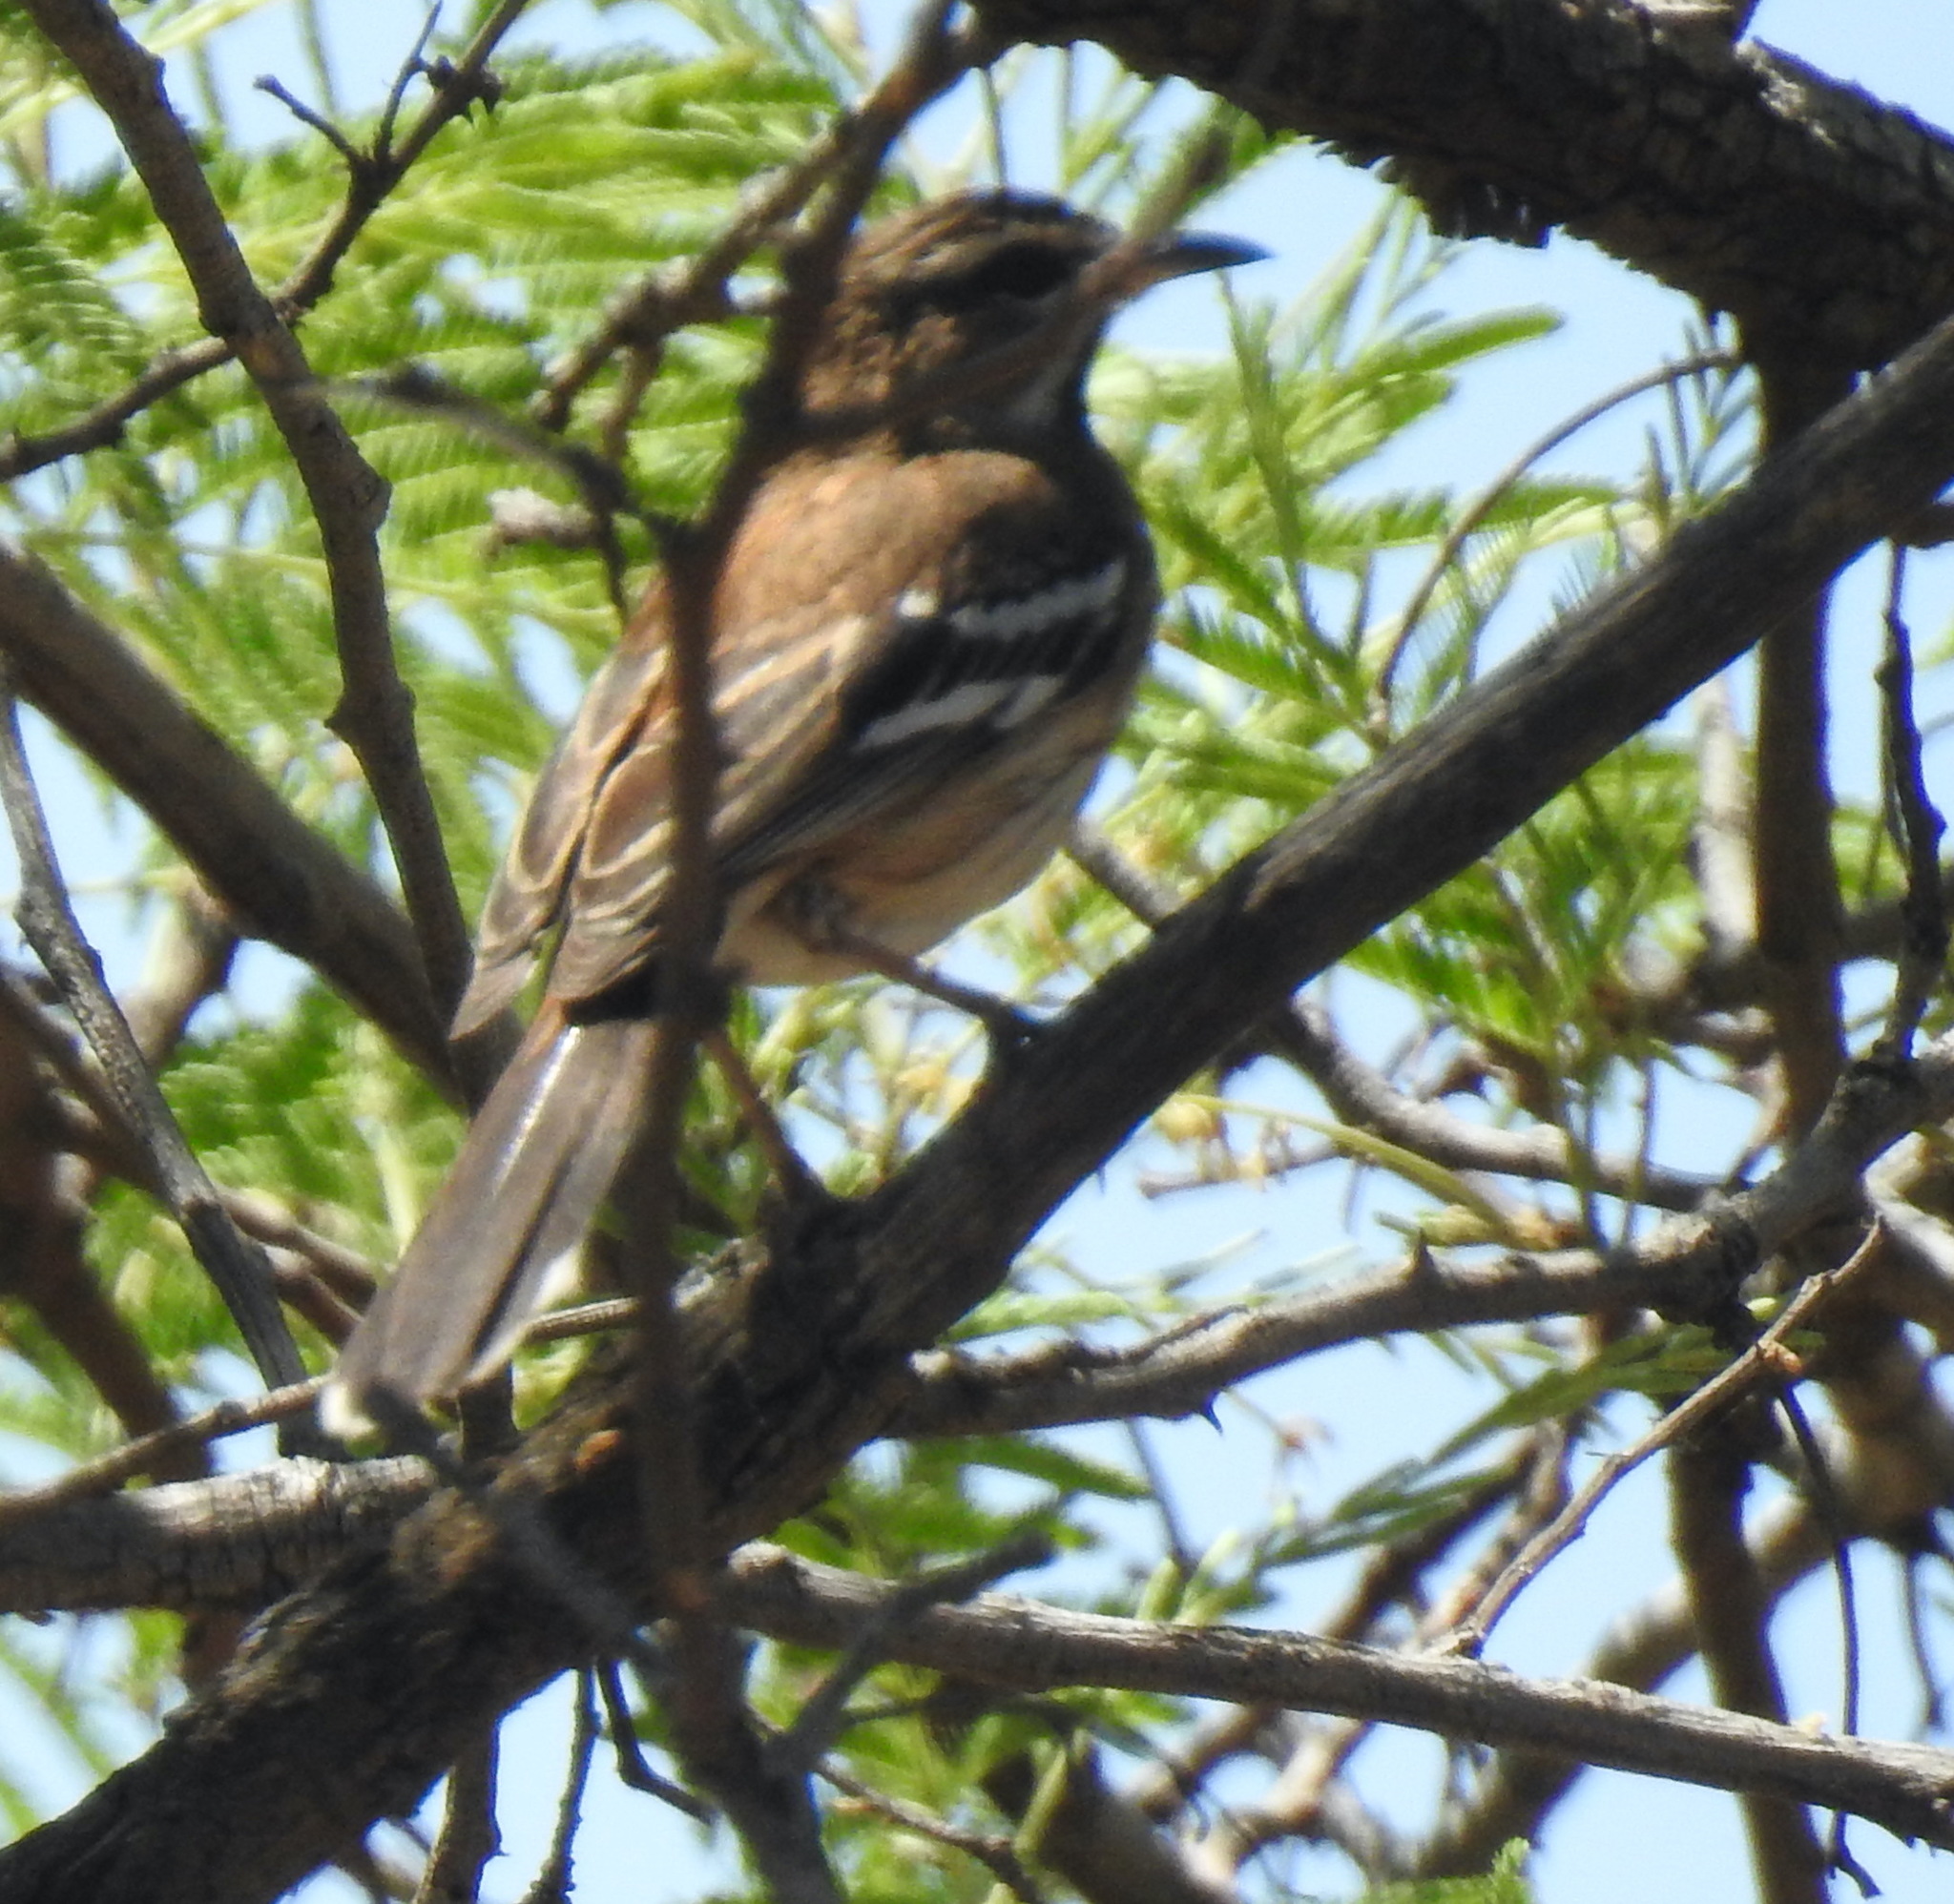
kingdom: Animalia
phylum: Chordata
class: Aves
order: Passeriformes
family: Muscicapidae
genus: Erythropygia
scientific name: Erythropygia leucophrys
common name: White-browed scrub robin
